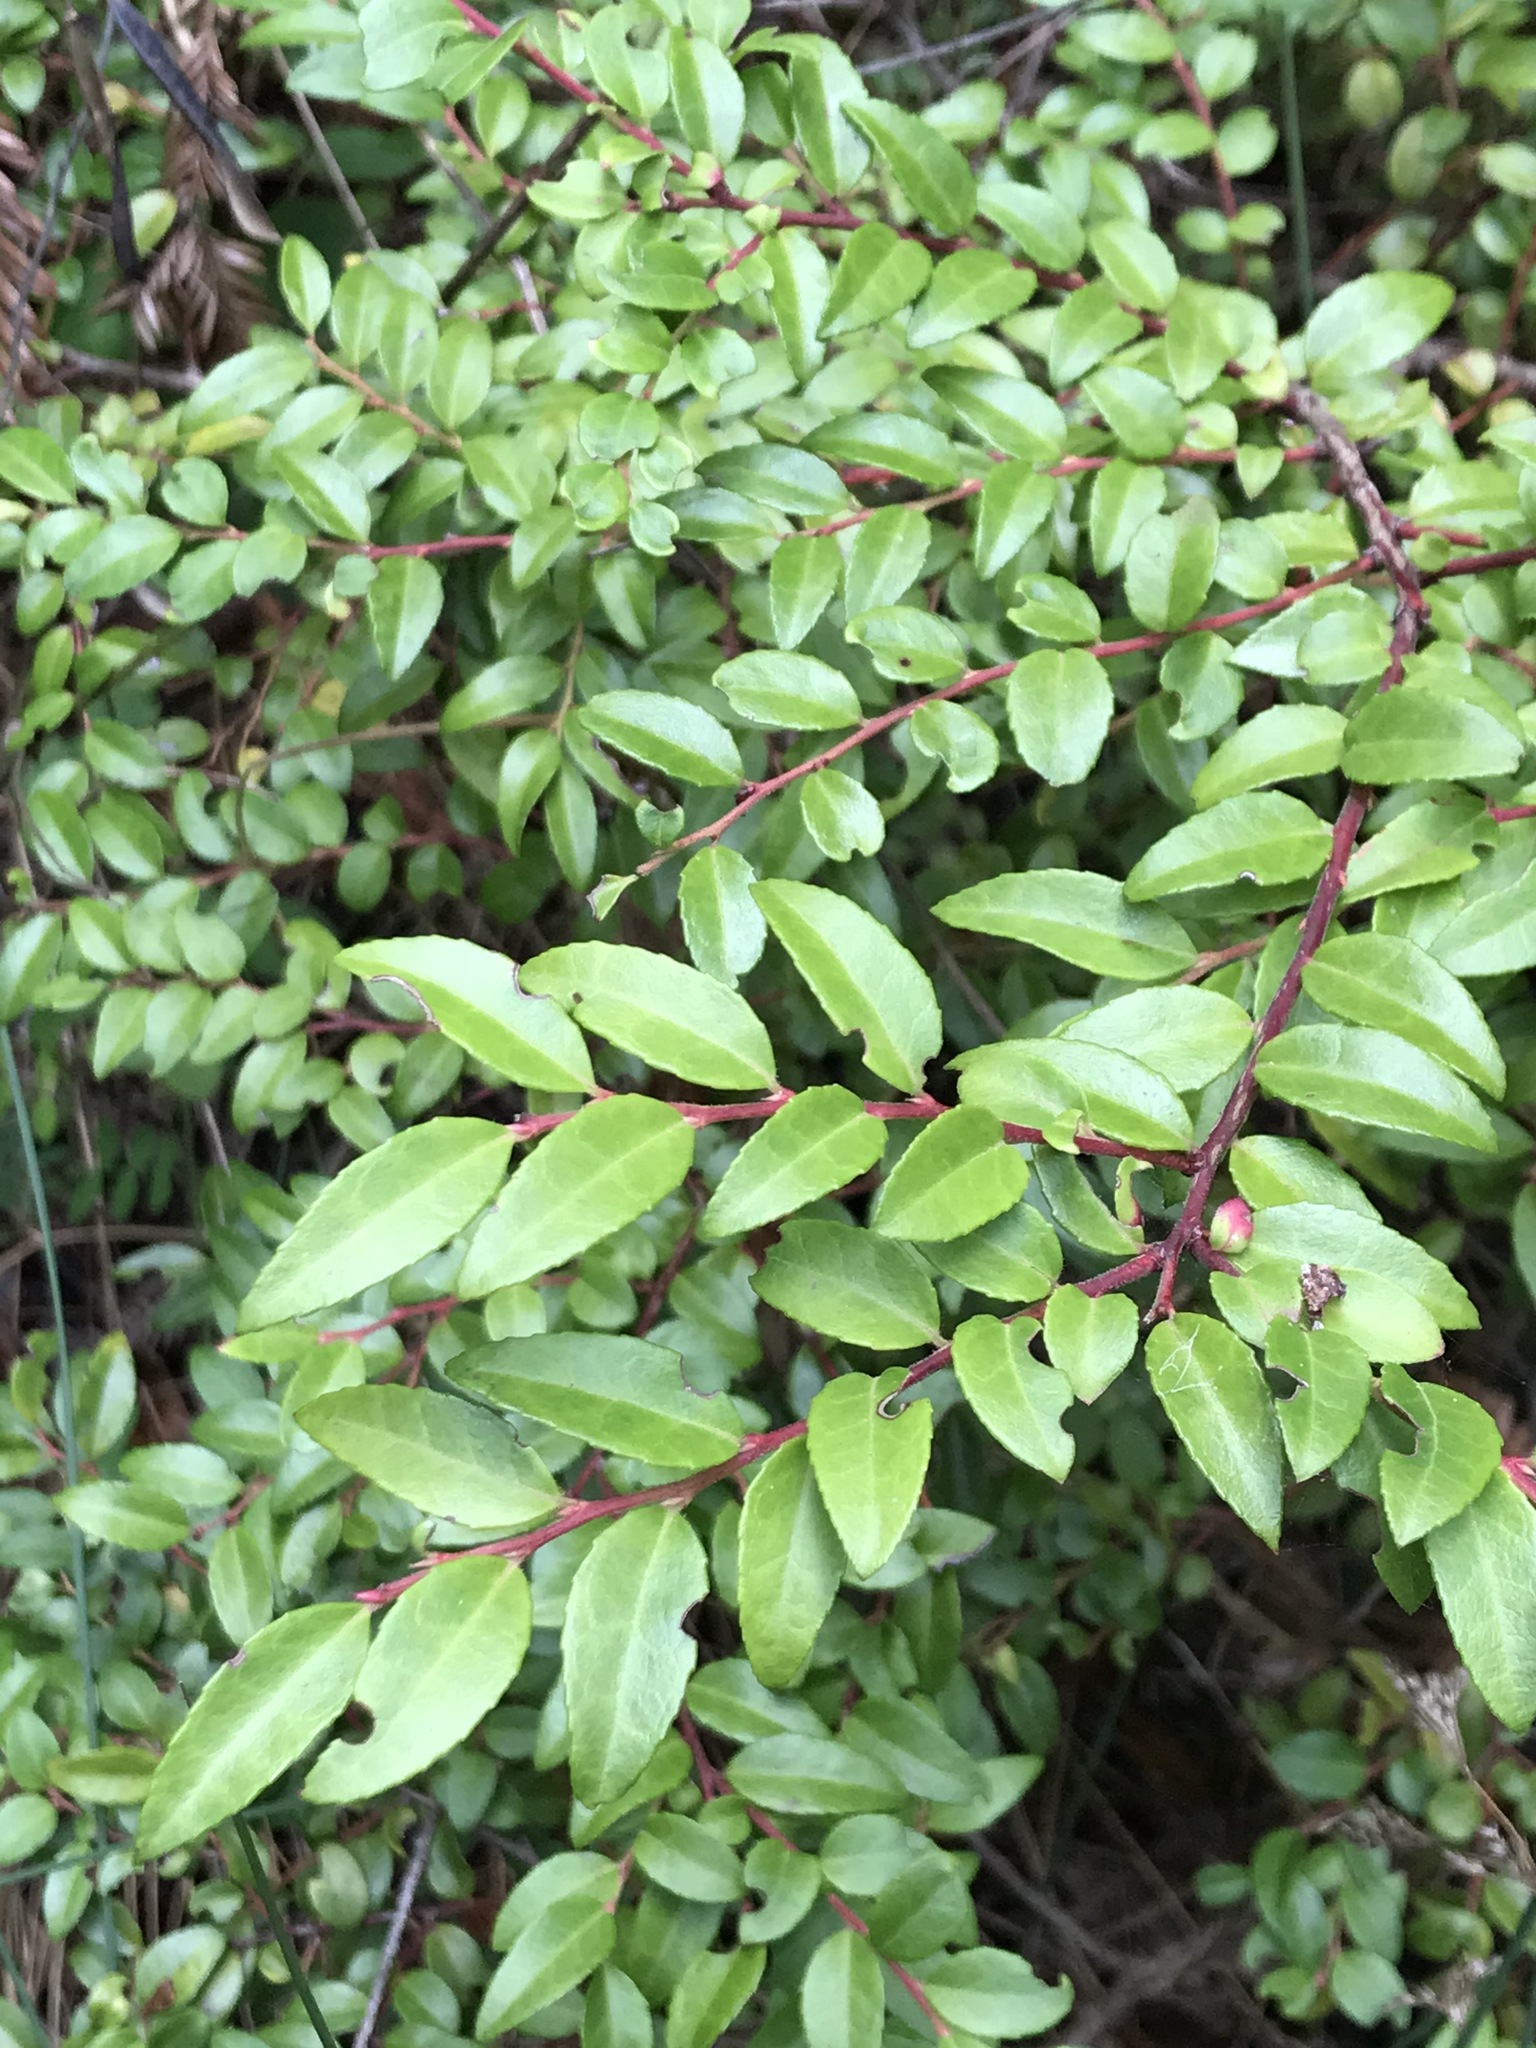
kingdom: Plantae
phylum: Tracheophyta
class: Magnoliopsida
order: Ericales
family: Ericaceae
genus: Vaccinium
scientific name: Vaccinium ovatum
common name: California-huckleberry
